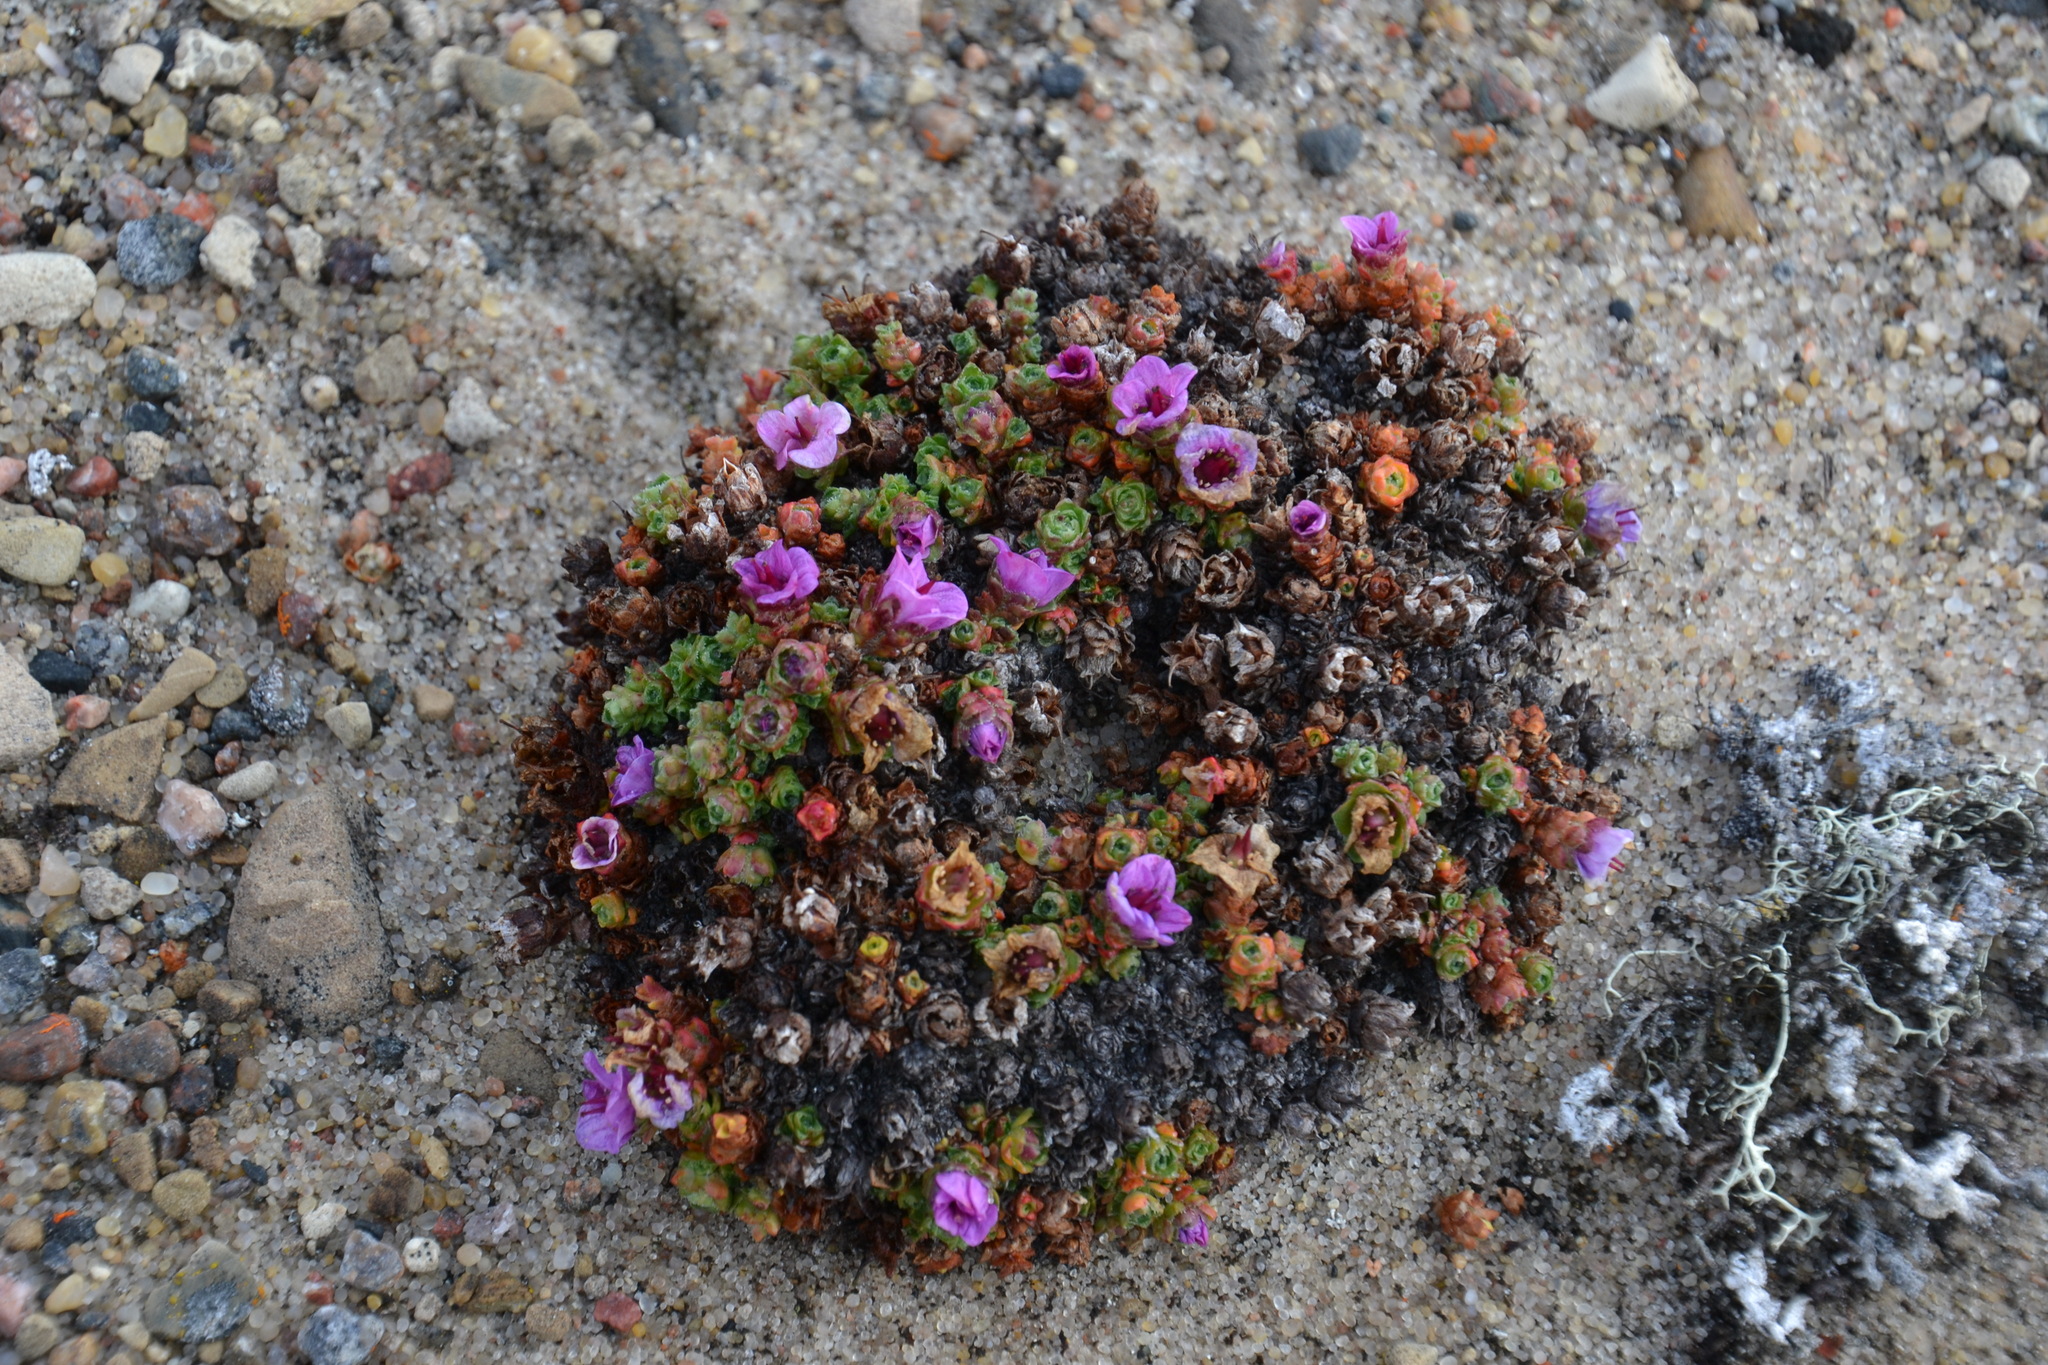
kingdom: Plantae
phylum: Tracheophyta
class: Magnoliopsida
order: Saxifragales
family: Saxifragaceae
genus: Saxifraga
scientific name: Saxifraga oppositifolia
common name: Purple saxifrage
